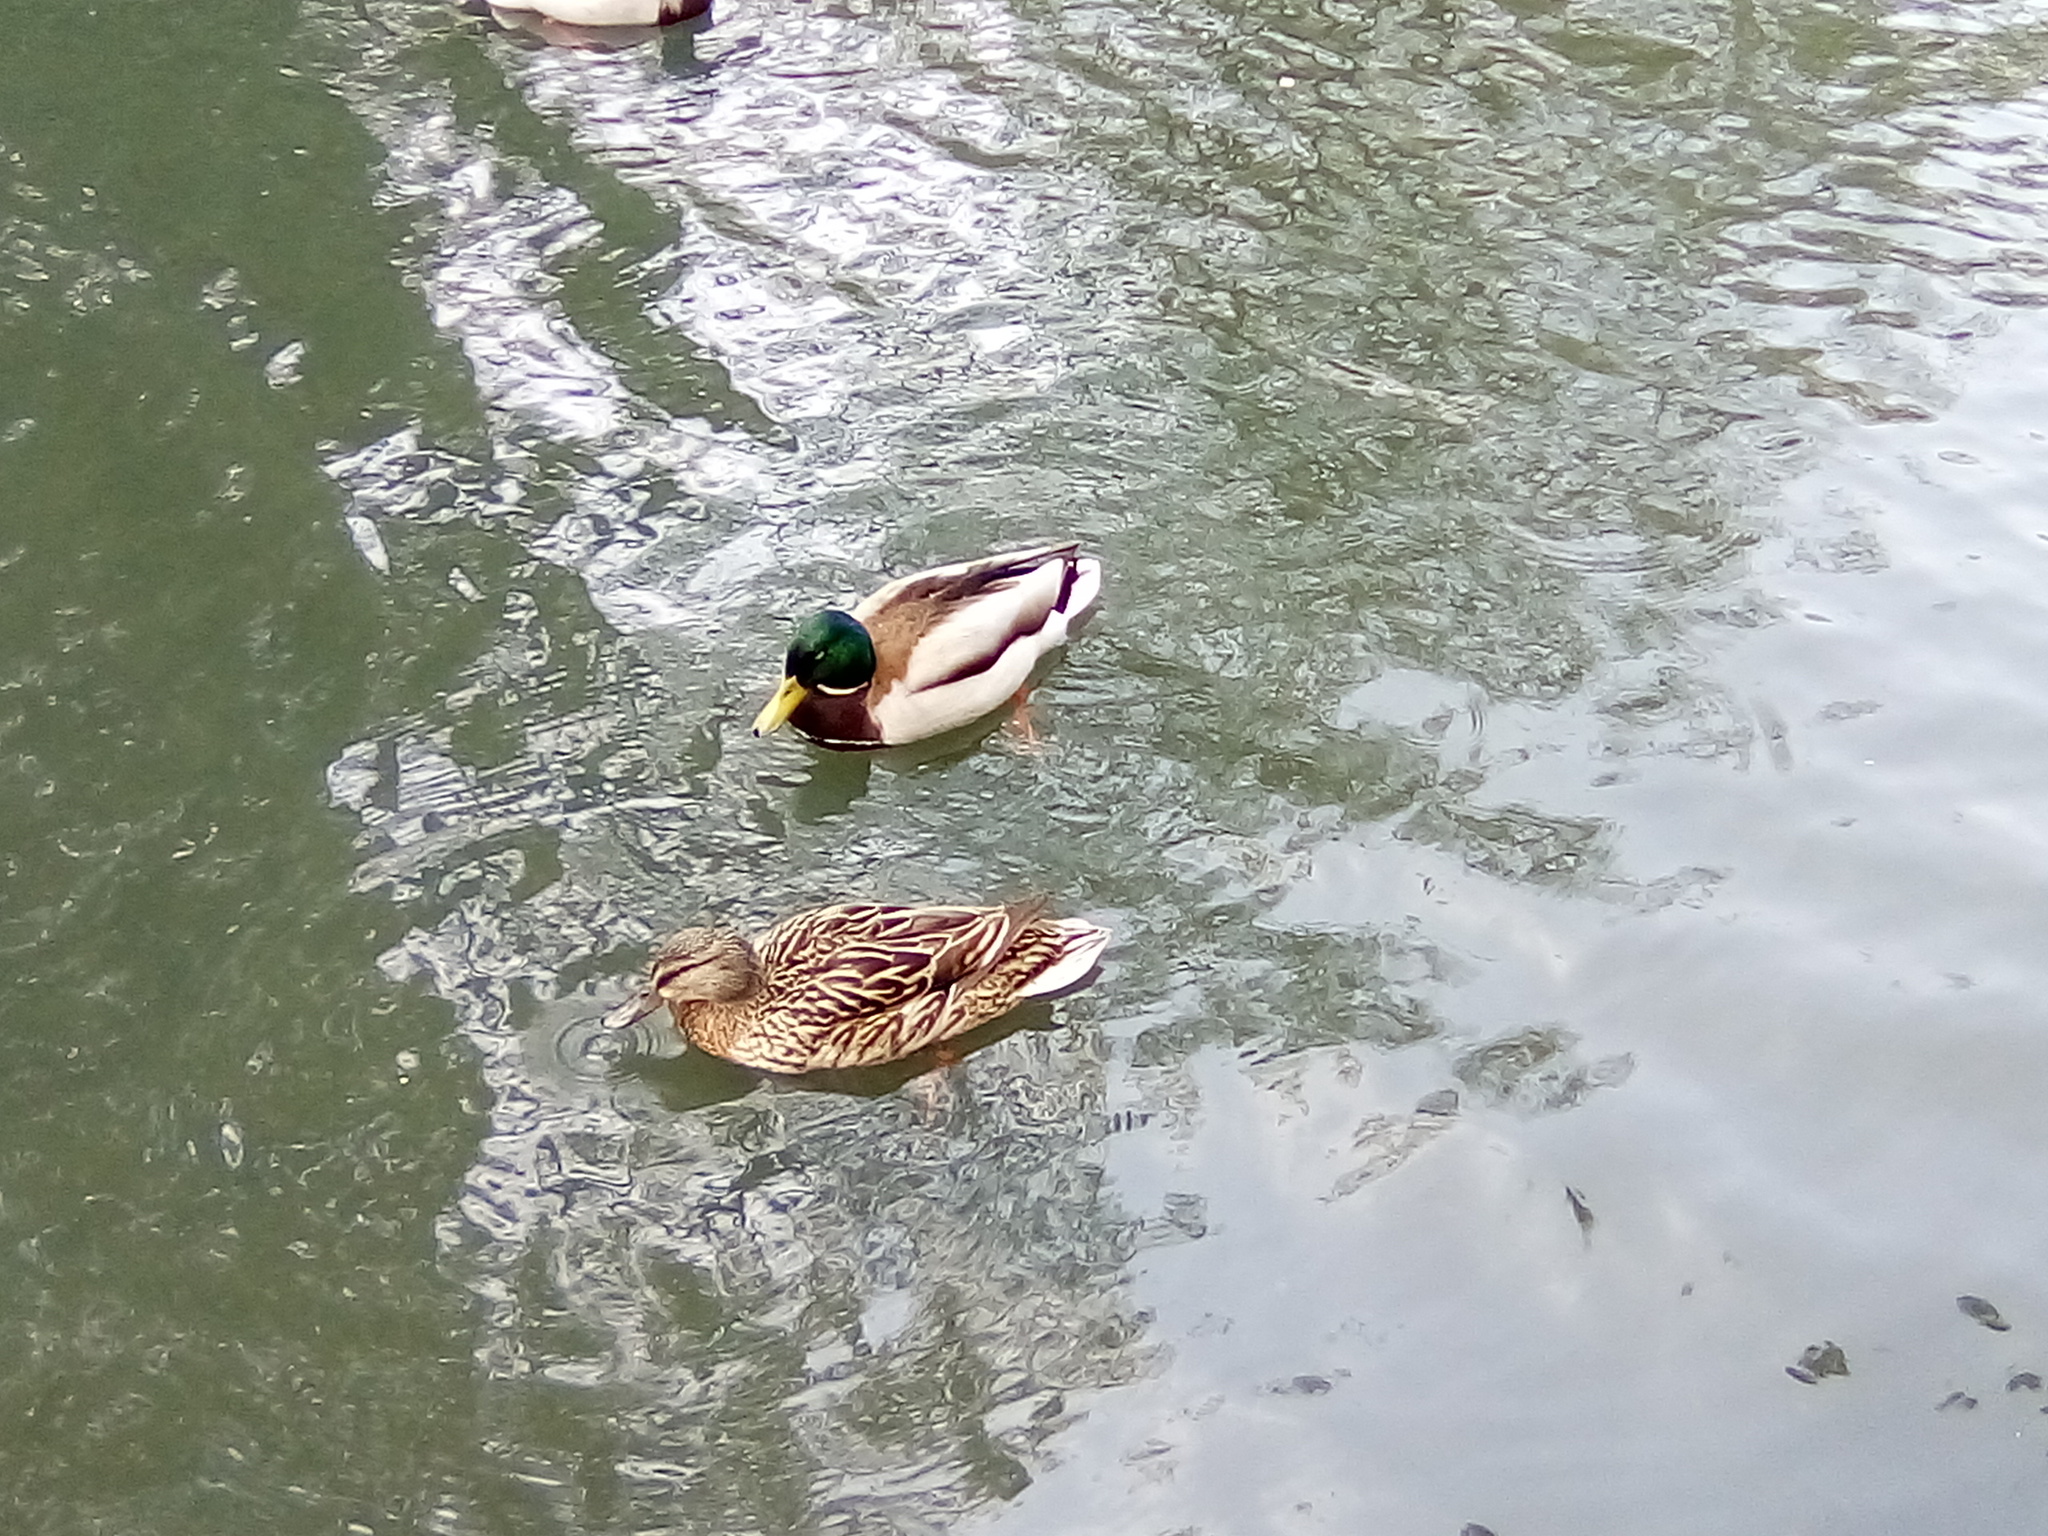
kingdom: Animalia
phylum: Chordata
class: Aves
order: Anseriformes
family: Anatidae
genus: Anas
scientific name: Anas platyrhynchos
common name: Mallard
